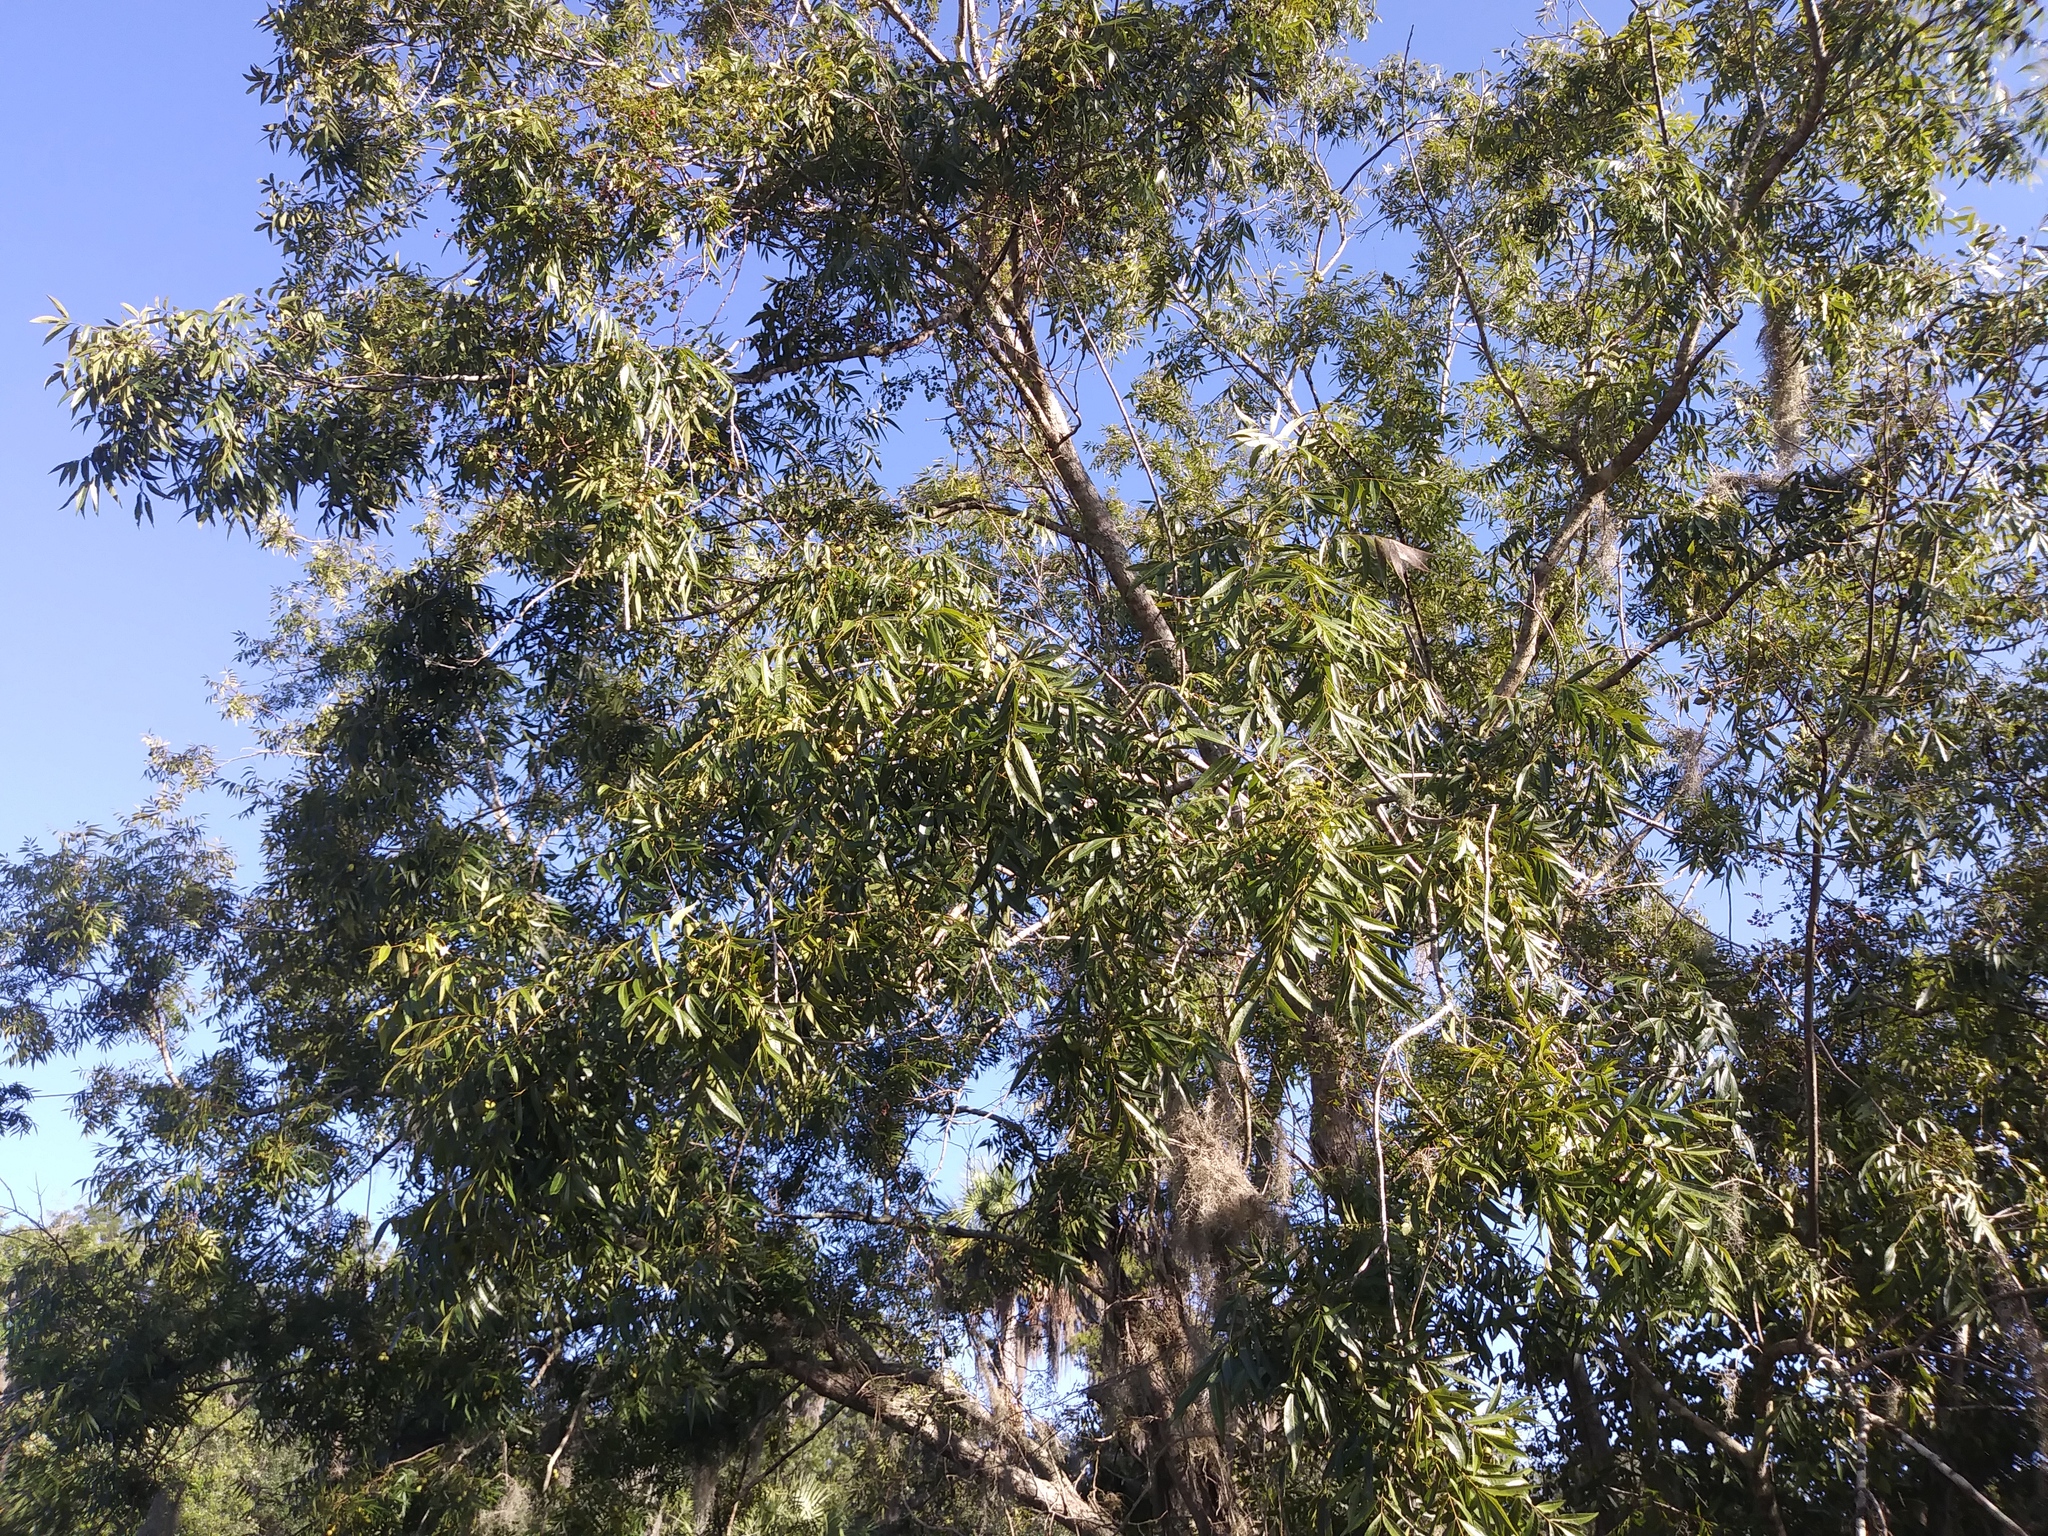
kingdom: Plantae
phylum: Tracheophyta
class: Magnoliopsida
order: Fagales
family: Juglandaceae
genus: Carya
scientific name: Carya aquatica
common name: Water hickory
